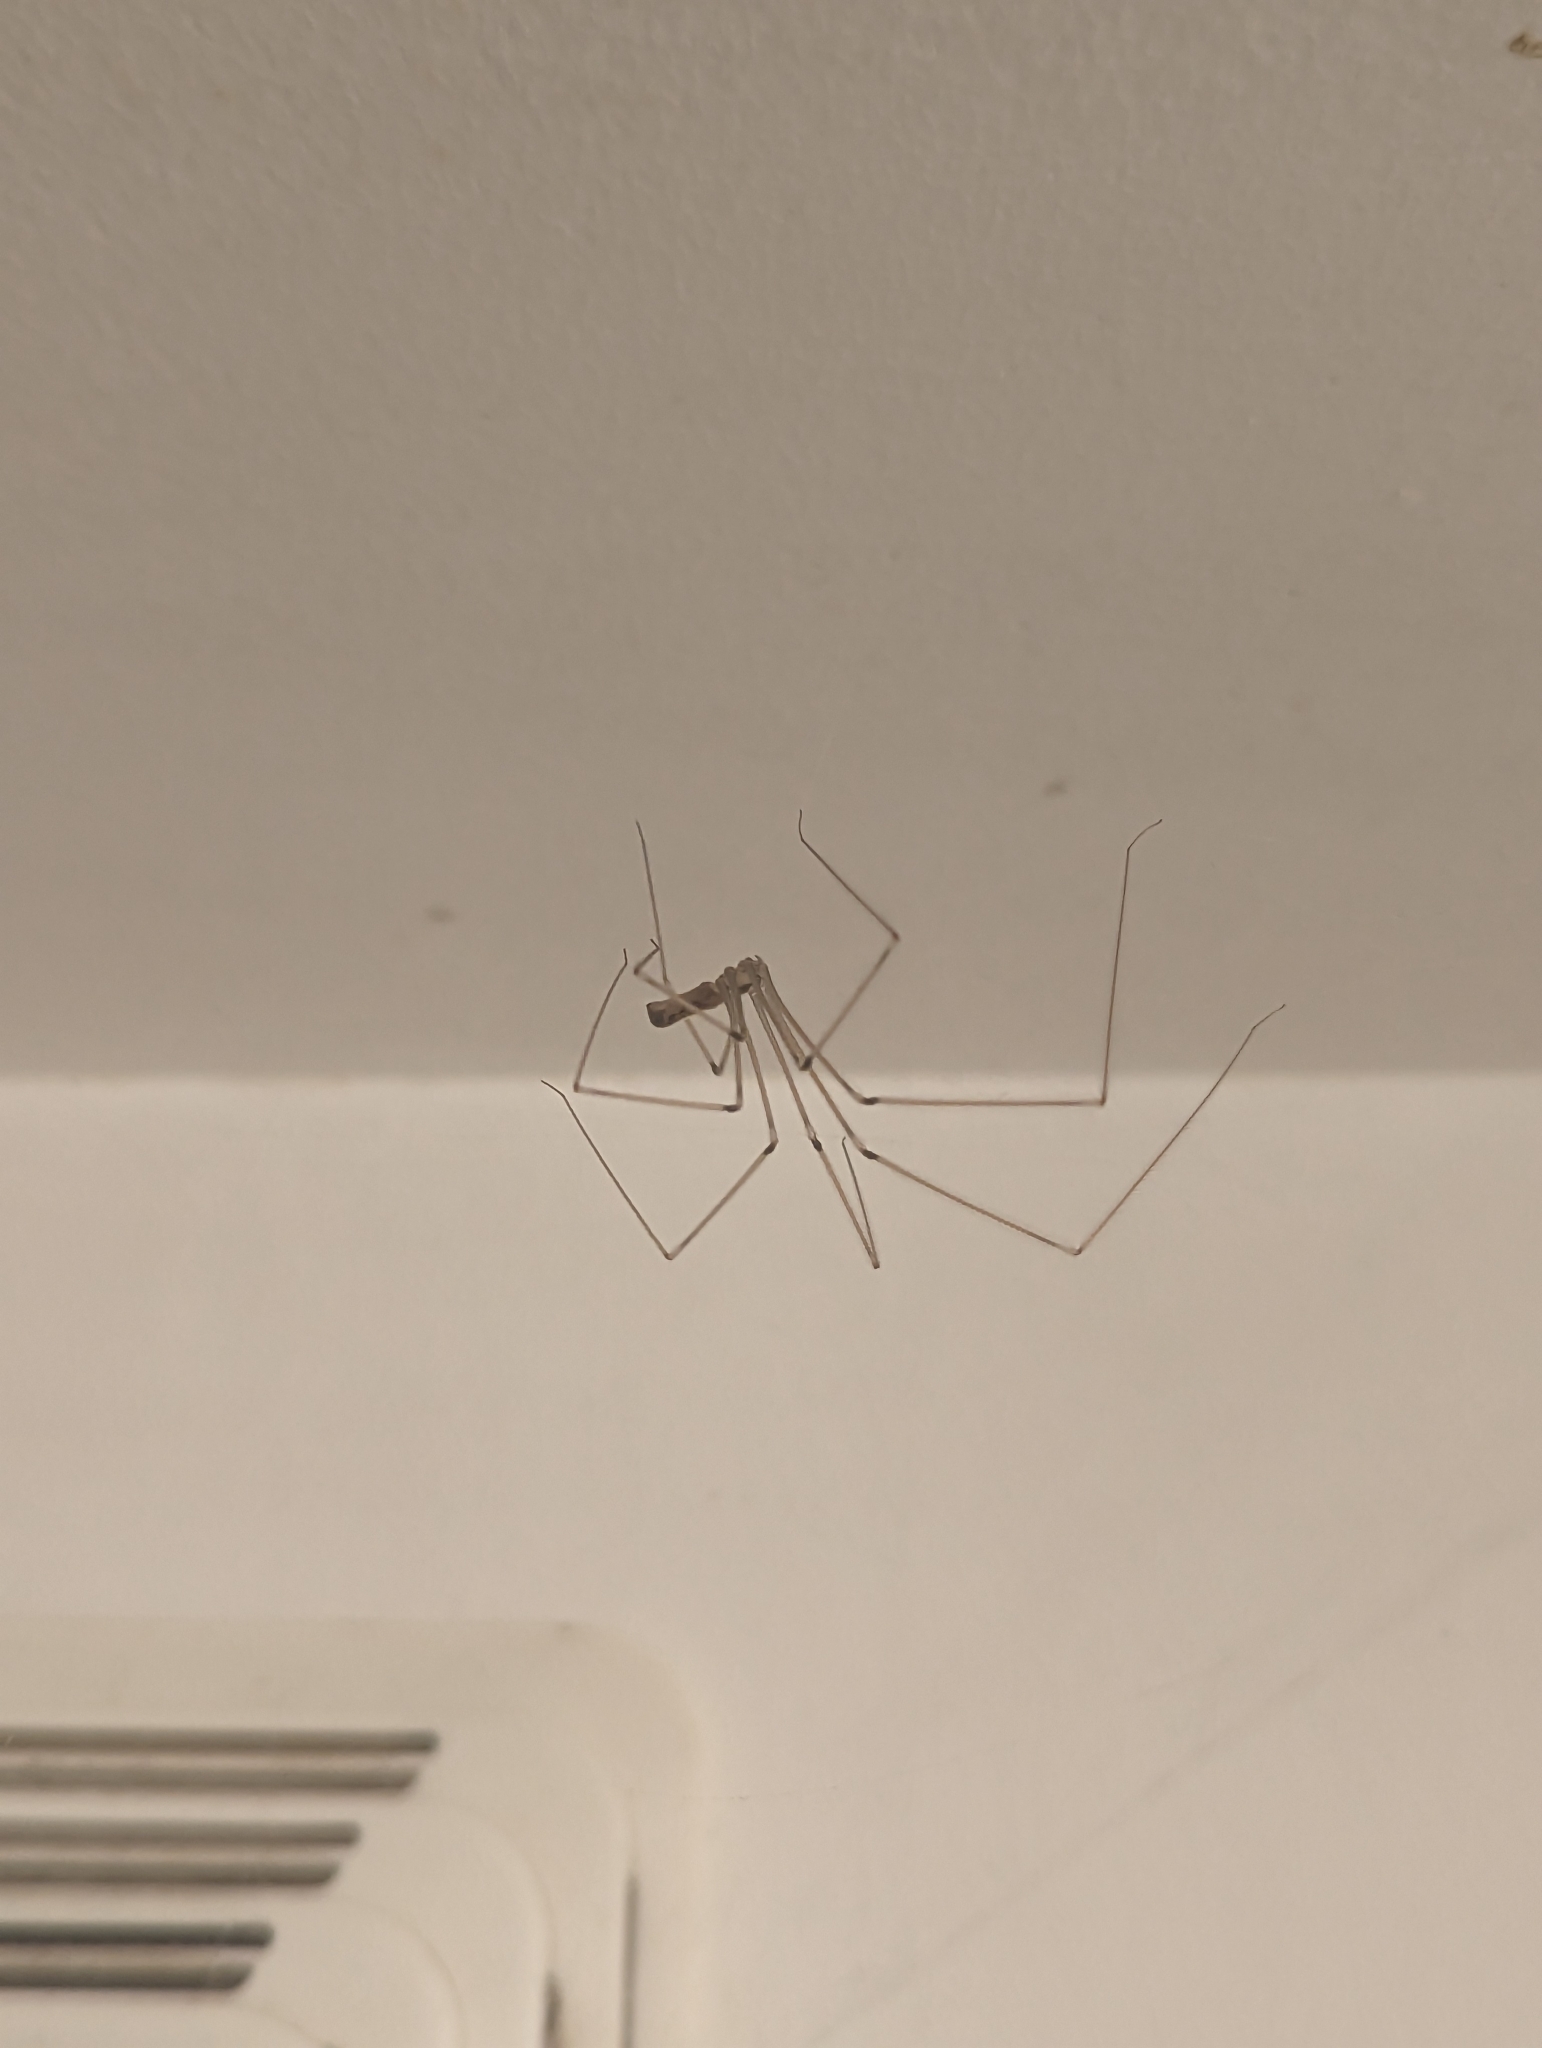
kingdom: Animalia
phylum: Arthropoda
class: Arachnida
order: Araneae
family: Pholcidae
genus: Pholcus
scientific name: Pholcus phalangioides
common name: Longbodied cellar spider
